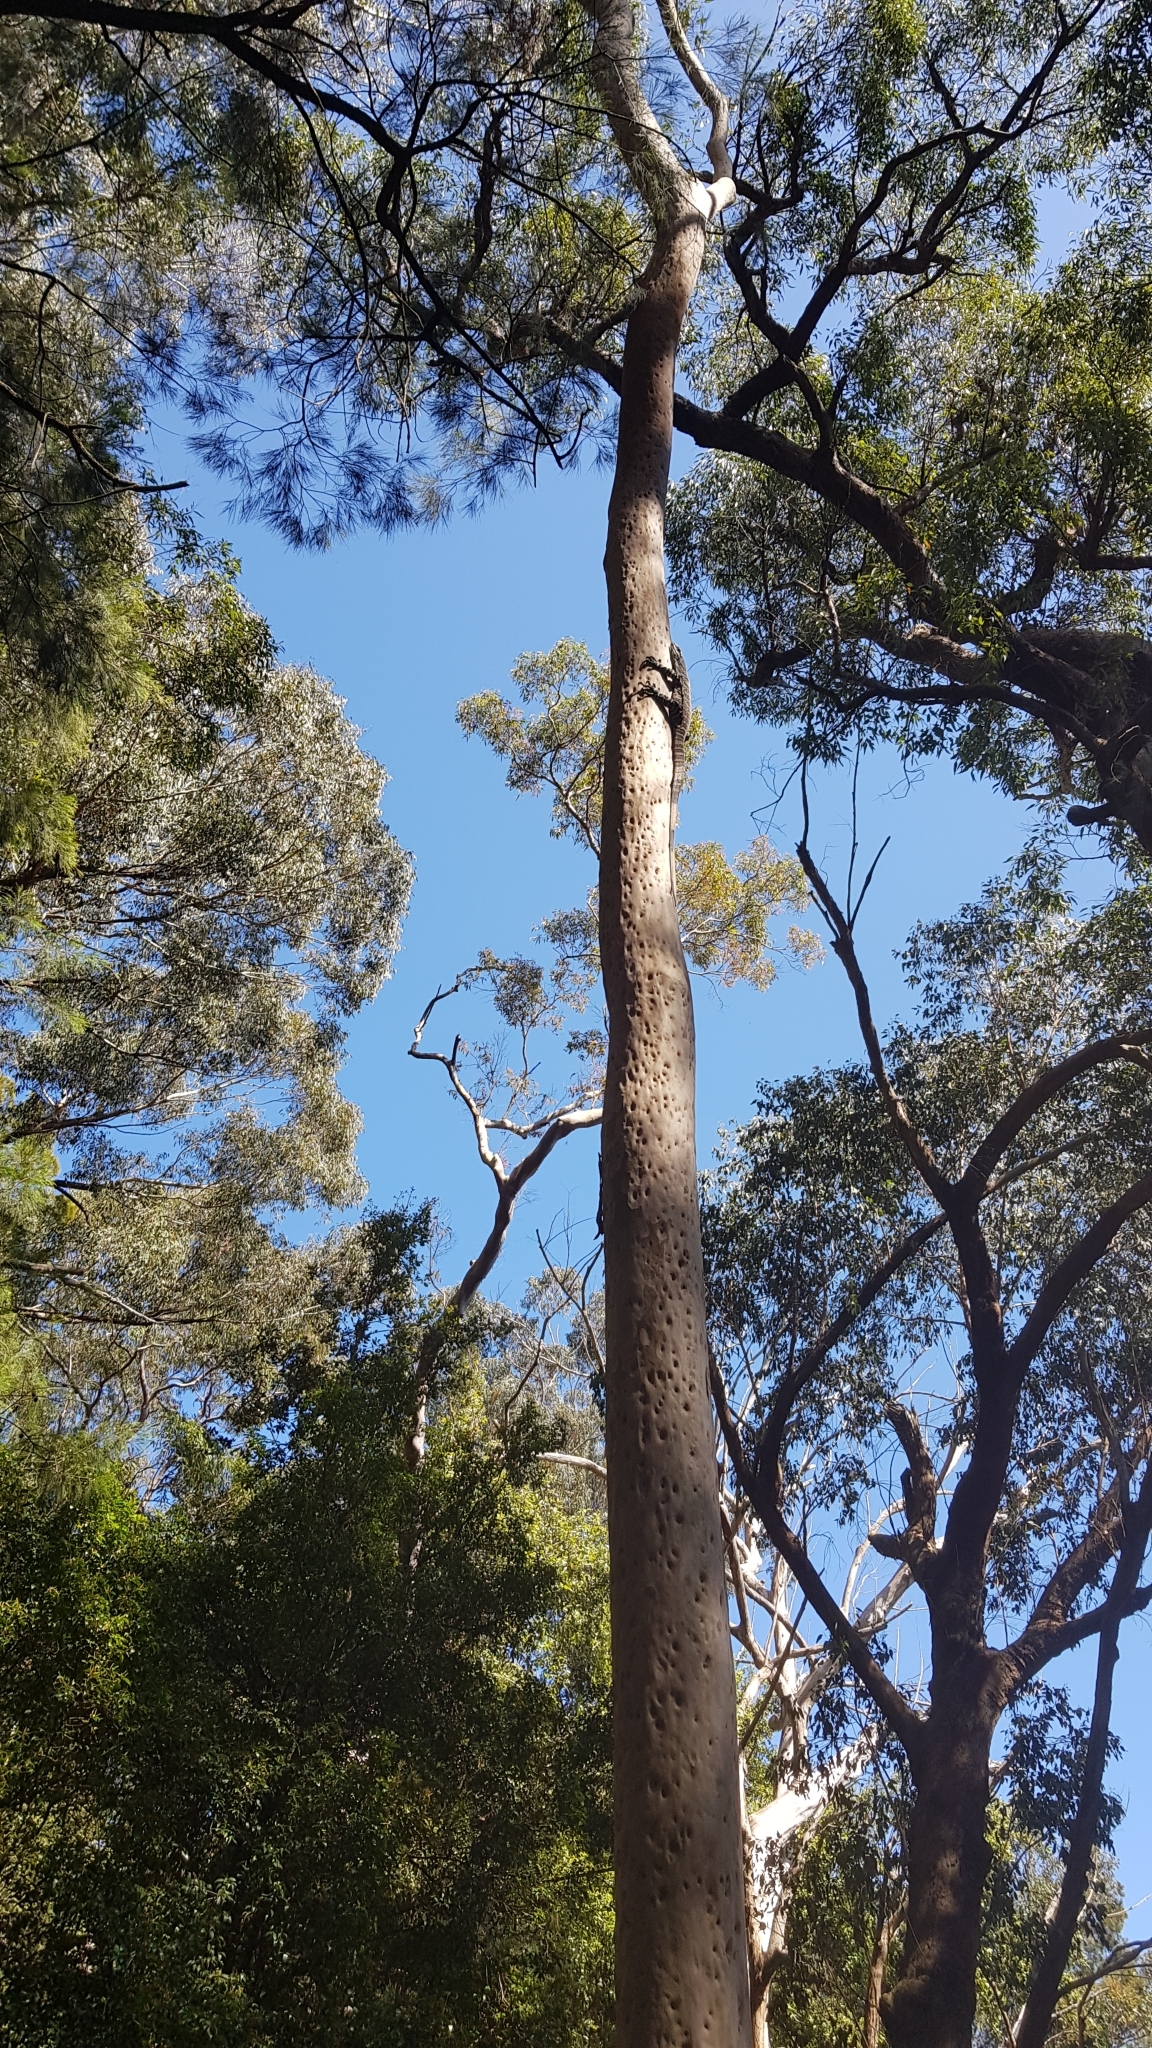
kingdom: Animalia
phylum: Chordata
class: Squamata
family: Varanidae
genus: Varanus
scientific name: Varanus varius
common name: Lace monitor
